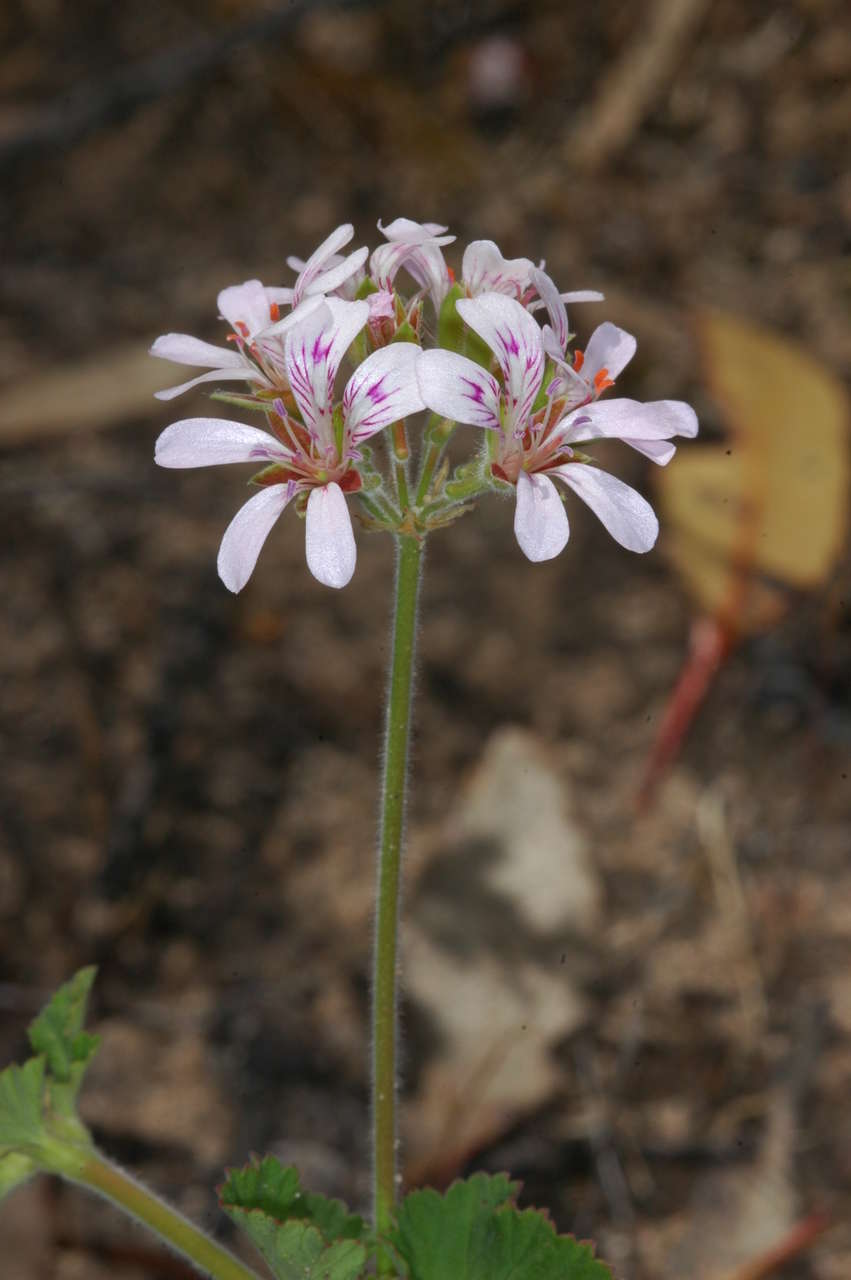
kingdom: Plantae
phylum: Tracheophyta
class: Magnoliopsida
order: Geraniales
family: Geraniaceae
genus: Pelargonium
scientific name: Pelargonium australe
